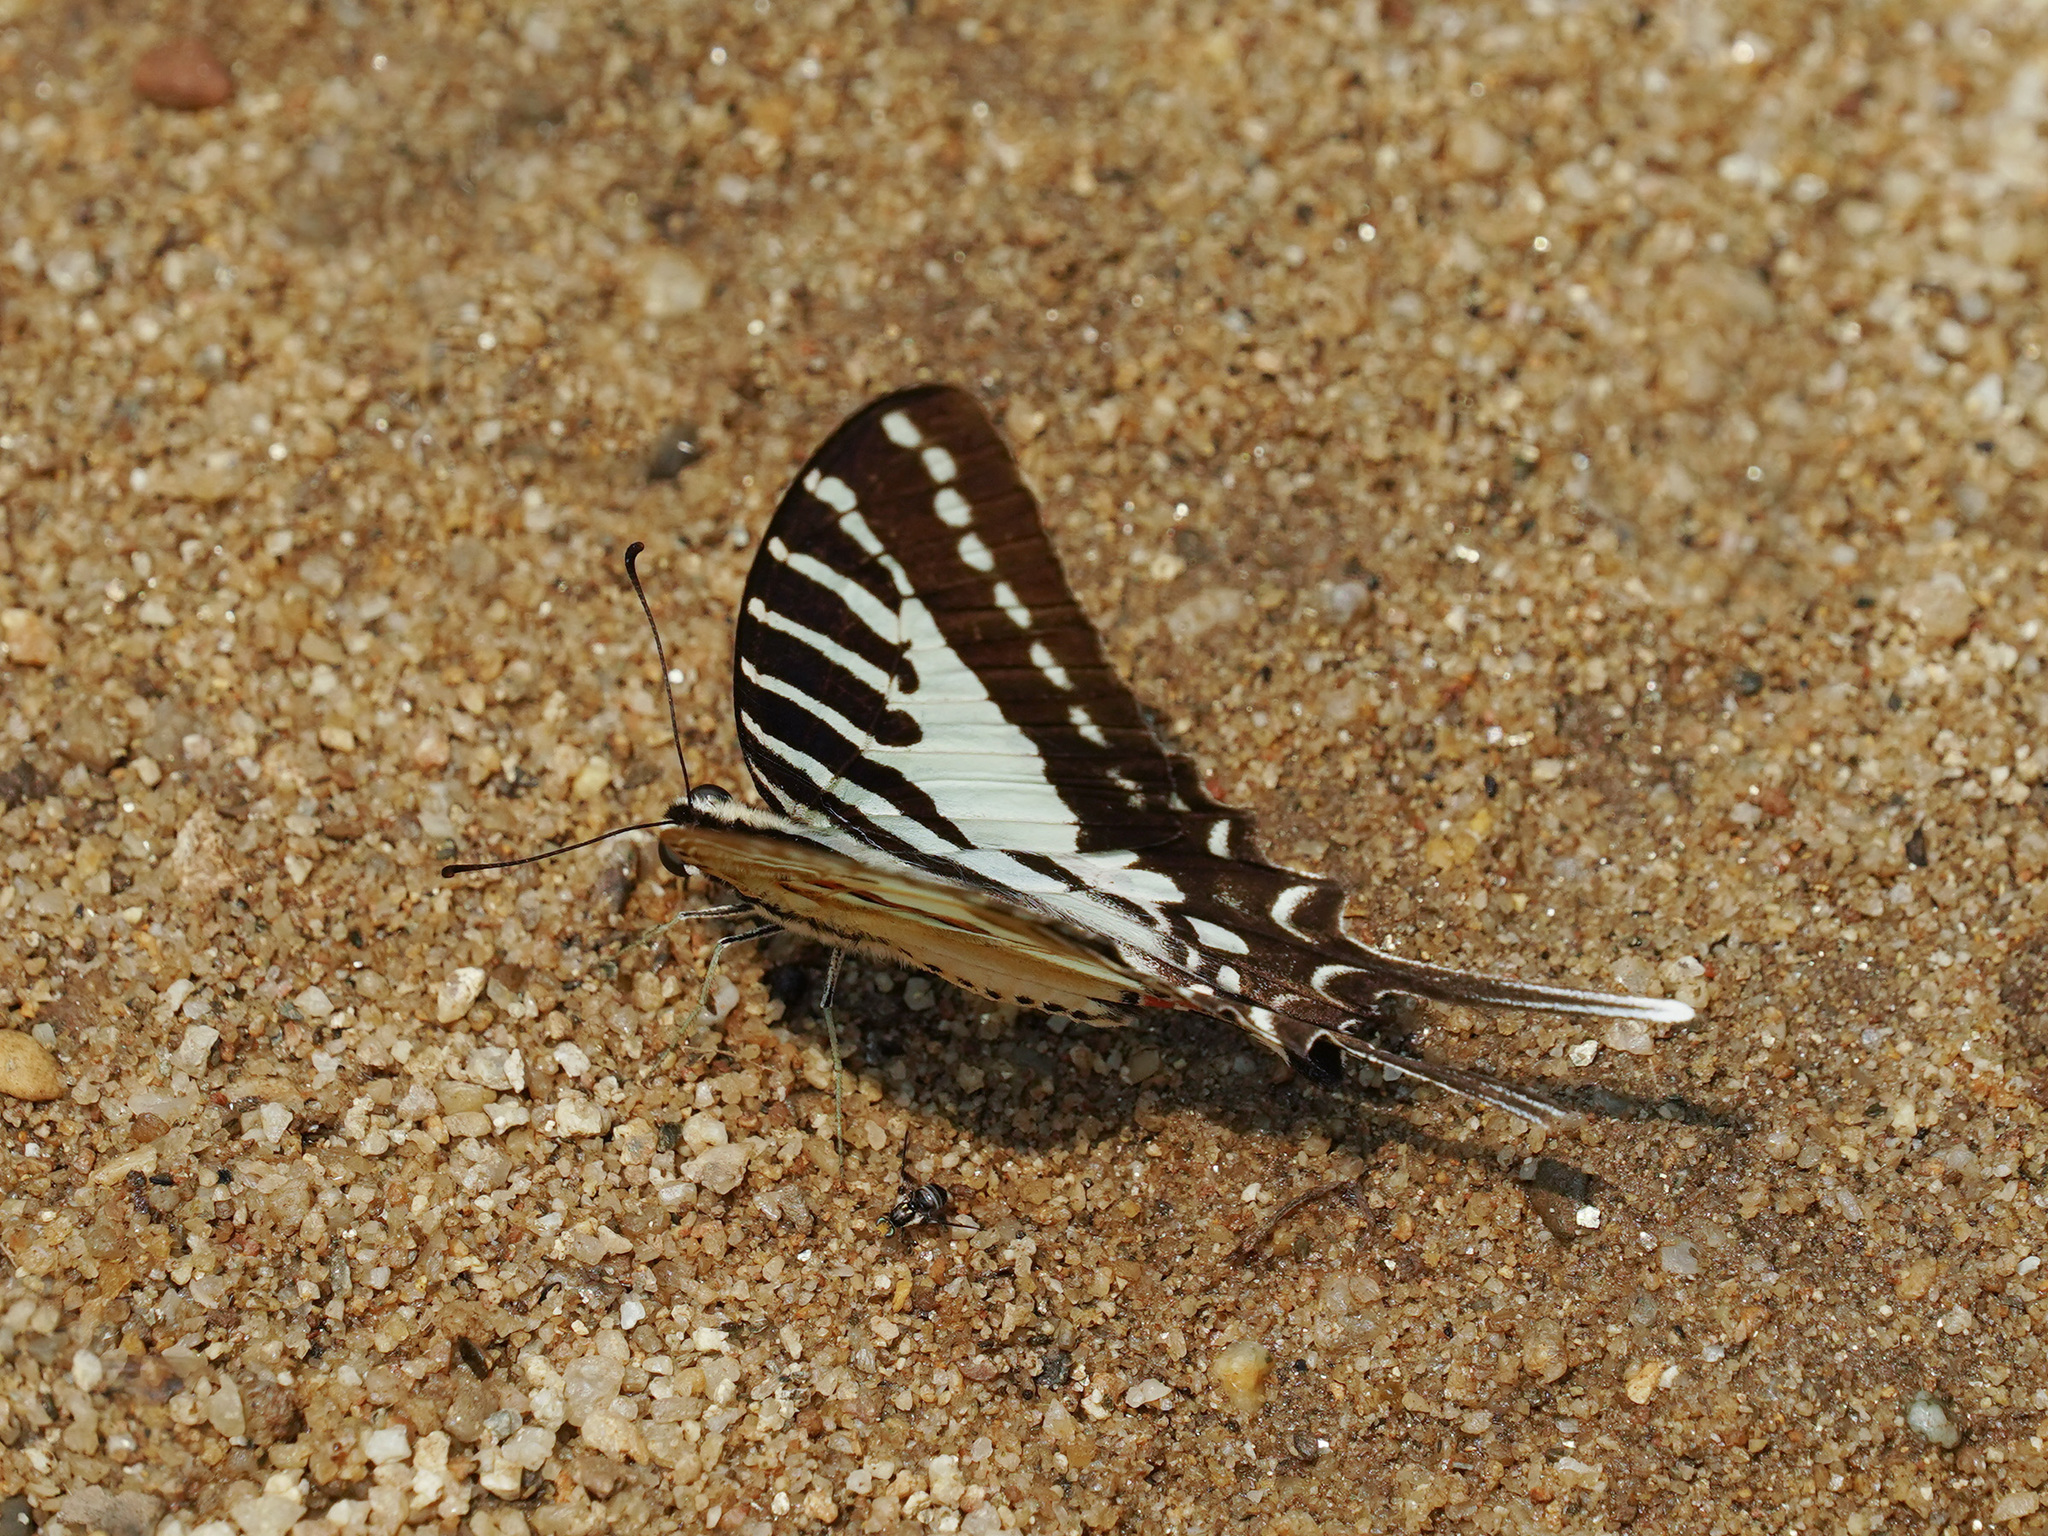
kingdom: Animalia
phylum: Arthropoda
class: Insecta
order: Lepidoptera
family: Papilionidae
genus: Graphium
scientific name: Graphium nomius
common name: Spot swordtail
